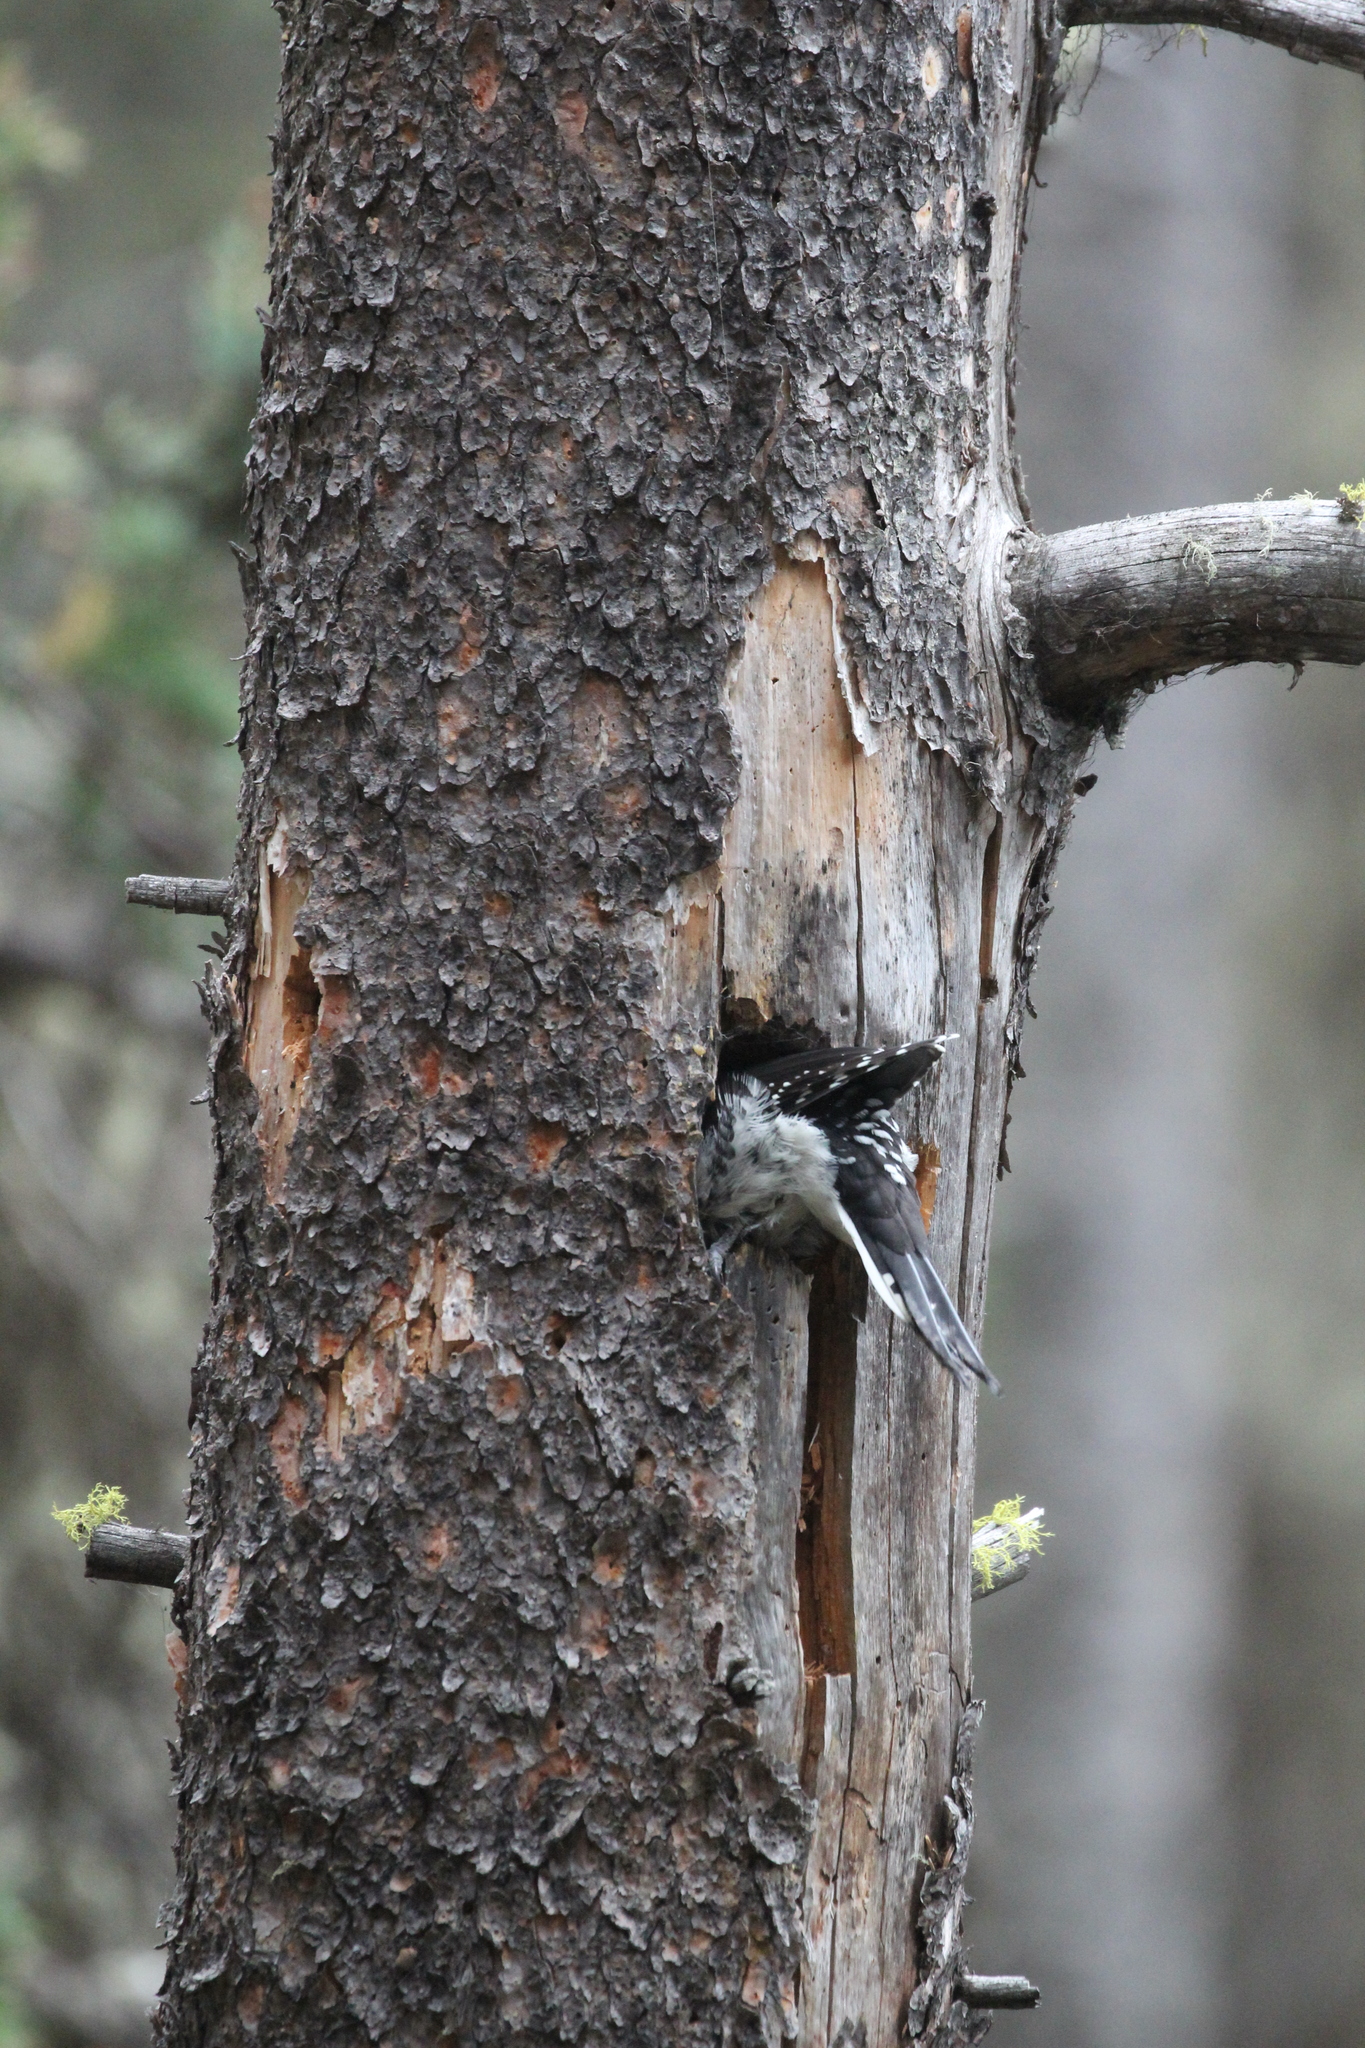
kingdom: Animalia
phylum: Chordata
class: Aves
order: Piciformes
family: Picidae
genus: Picoides
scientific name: Picoides dorsalis
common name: American three-toed woodpecker
